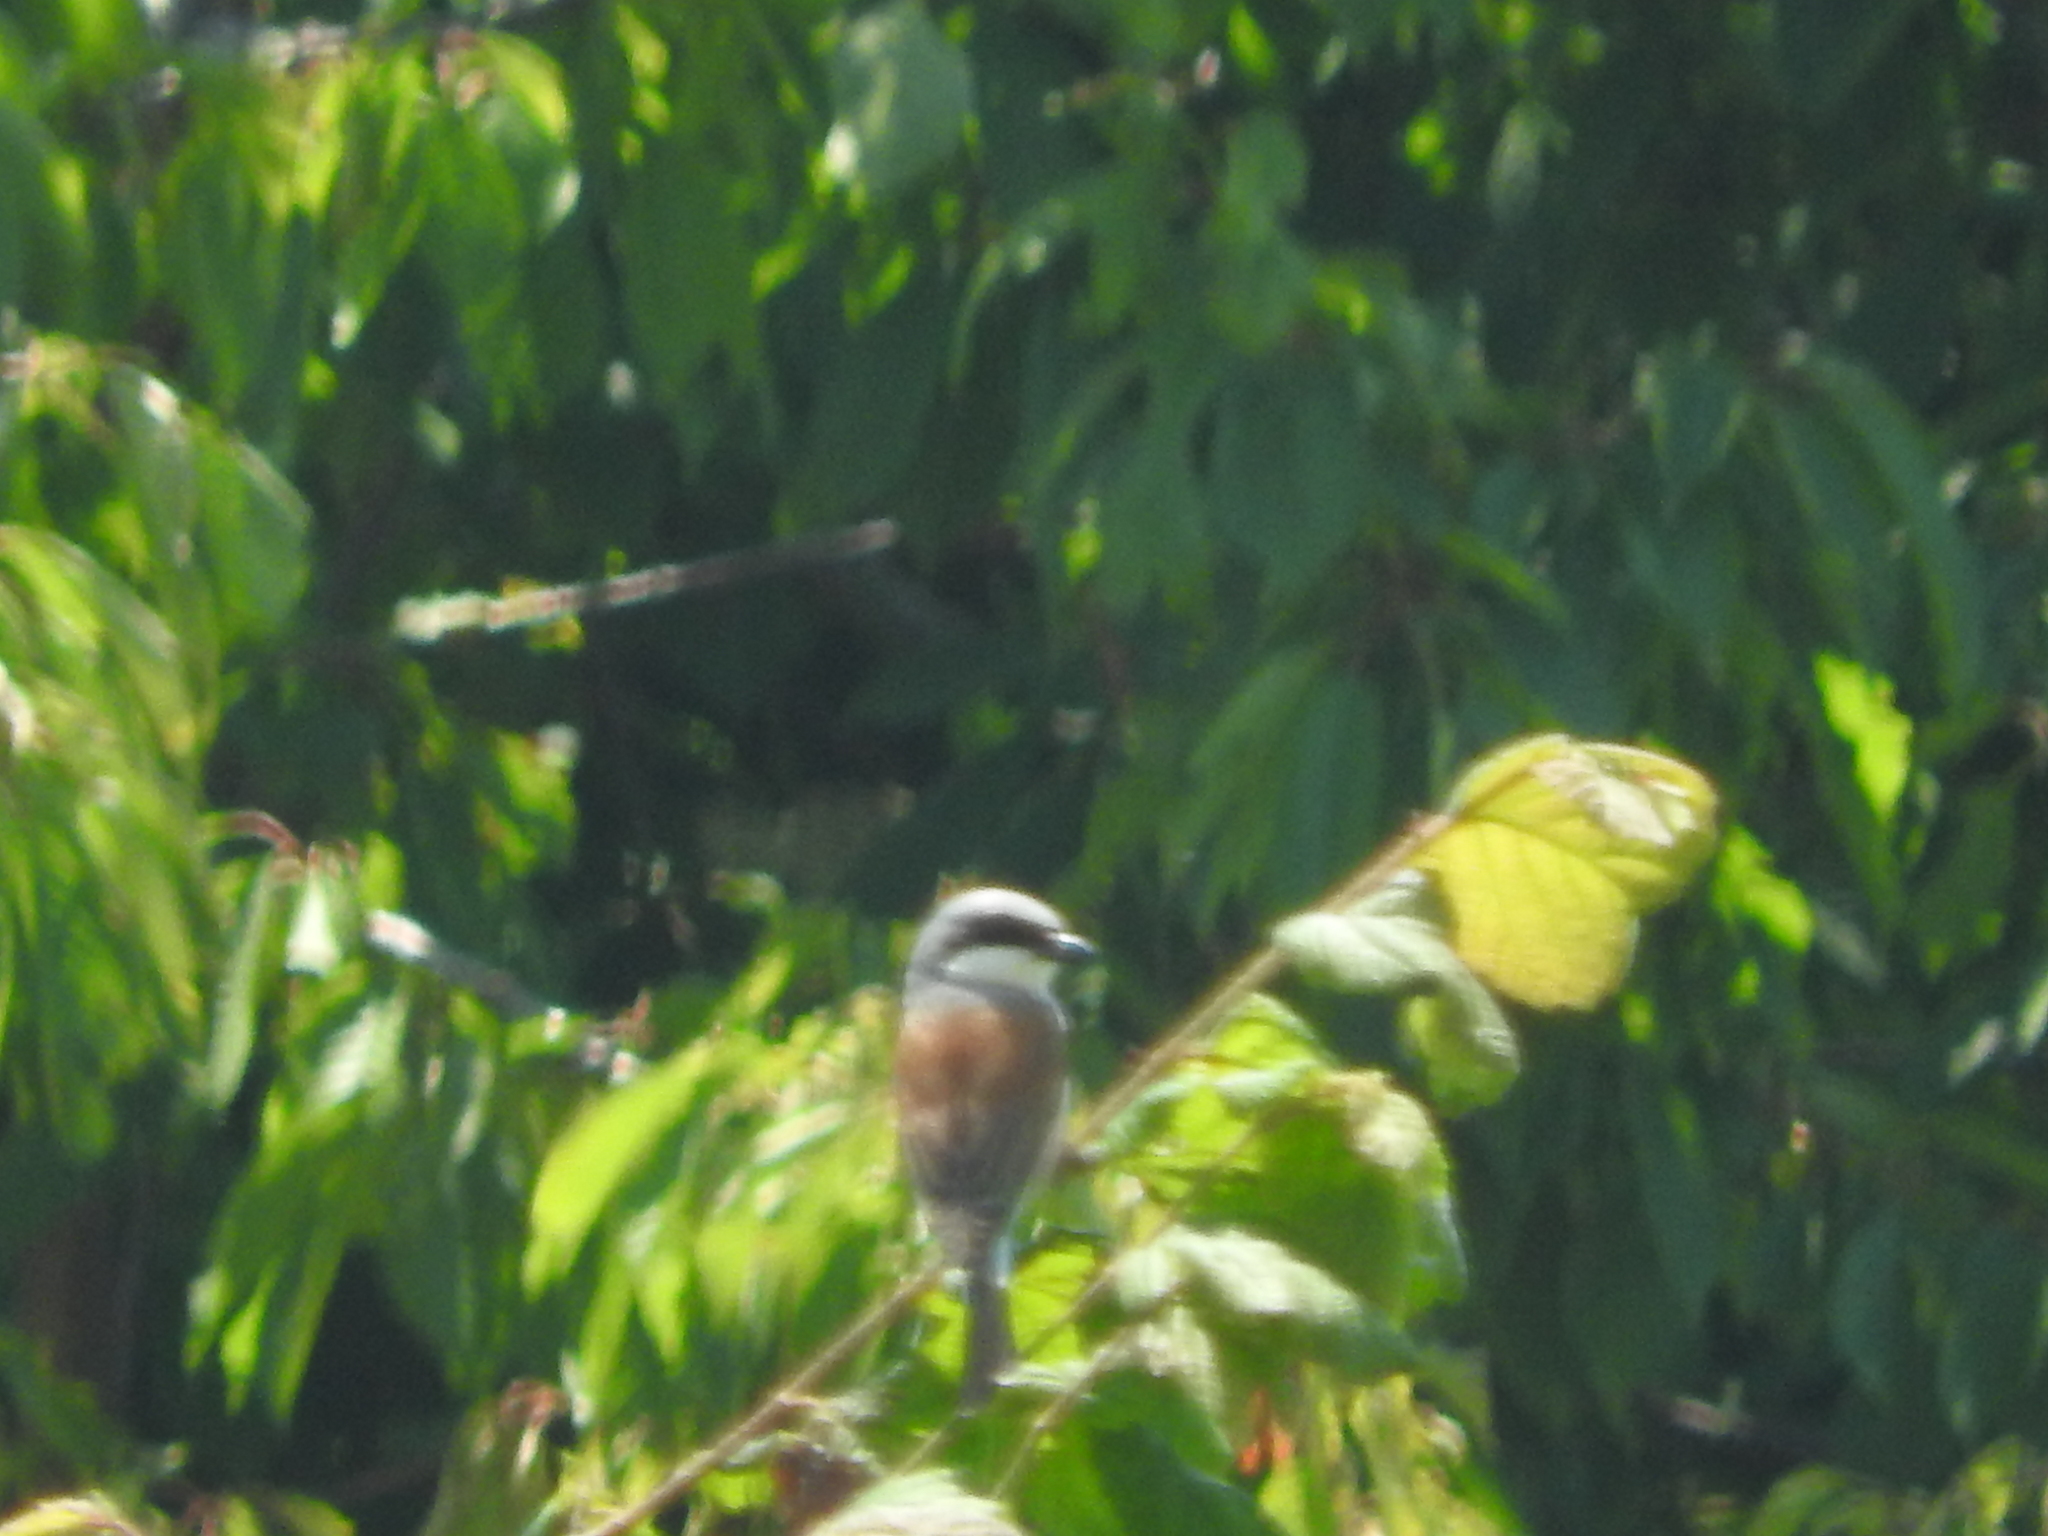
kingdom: Animalia
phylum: Chordata
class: Aves
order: Passeriformes
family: Laniidae
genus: Lanius
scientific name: Lanius collurio
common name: Red-backed shrike
